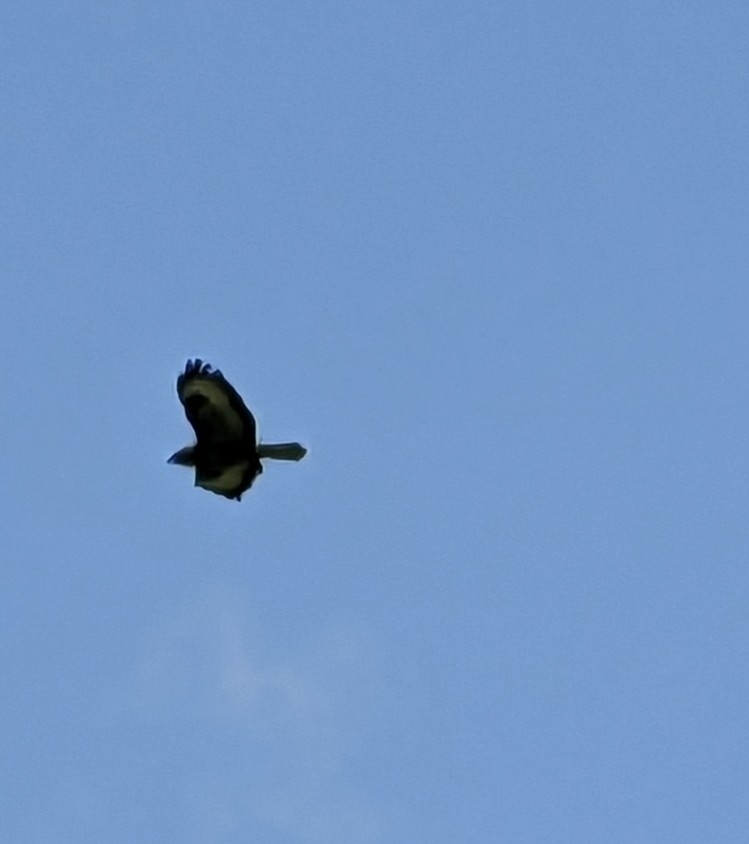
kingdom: Animalia
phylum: Chordata
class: Aves
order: Accipitriformes
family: Accipitridae
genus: Buteo
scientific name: Buteo buteo
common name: Common buzzard
